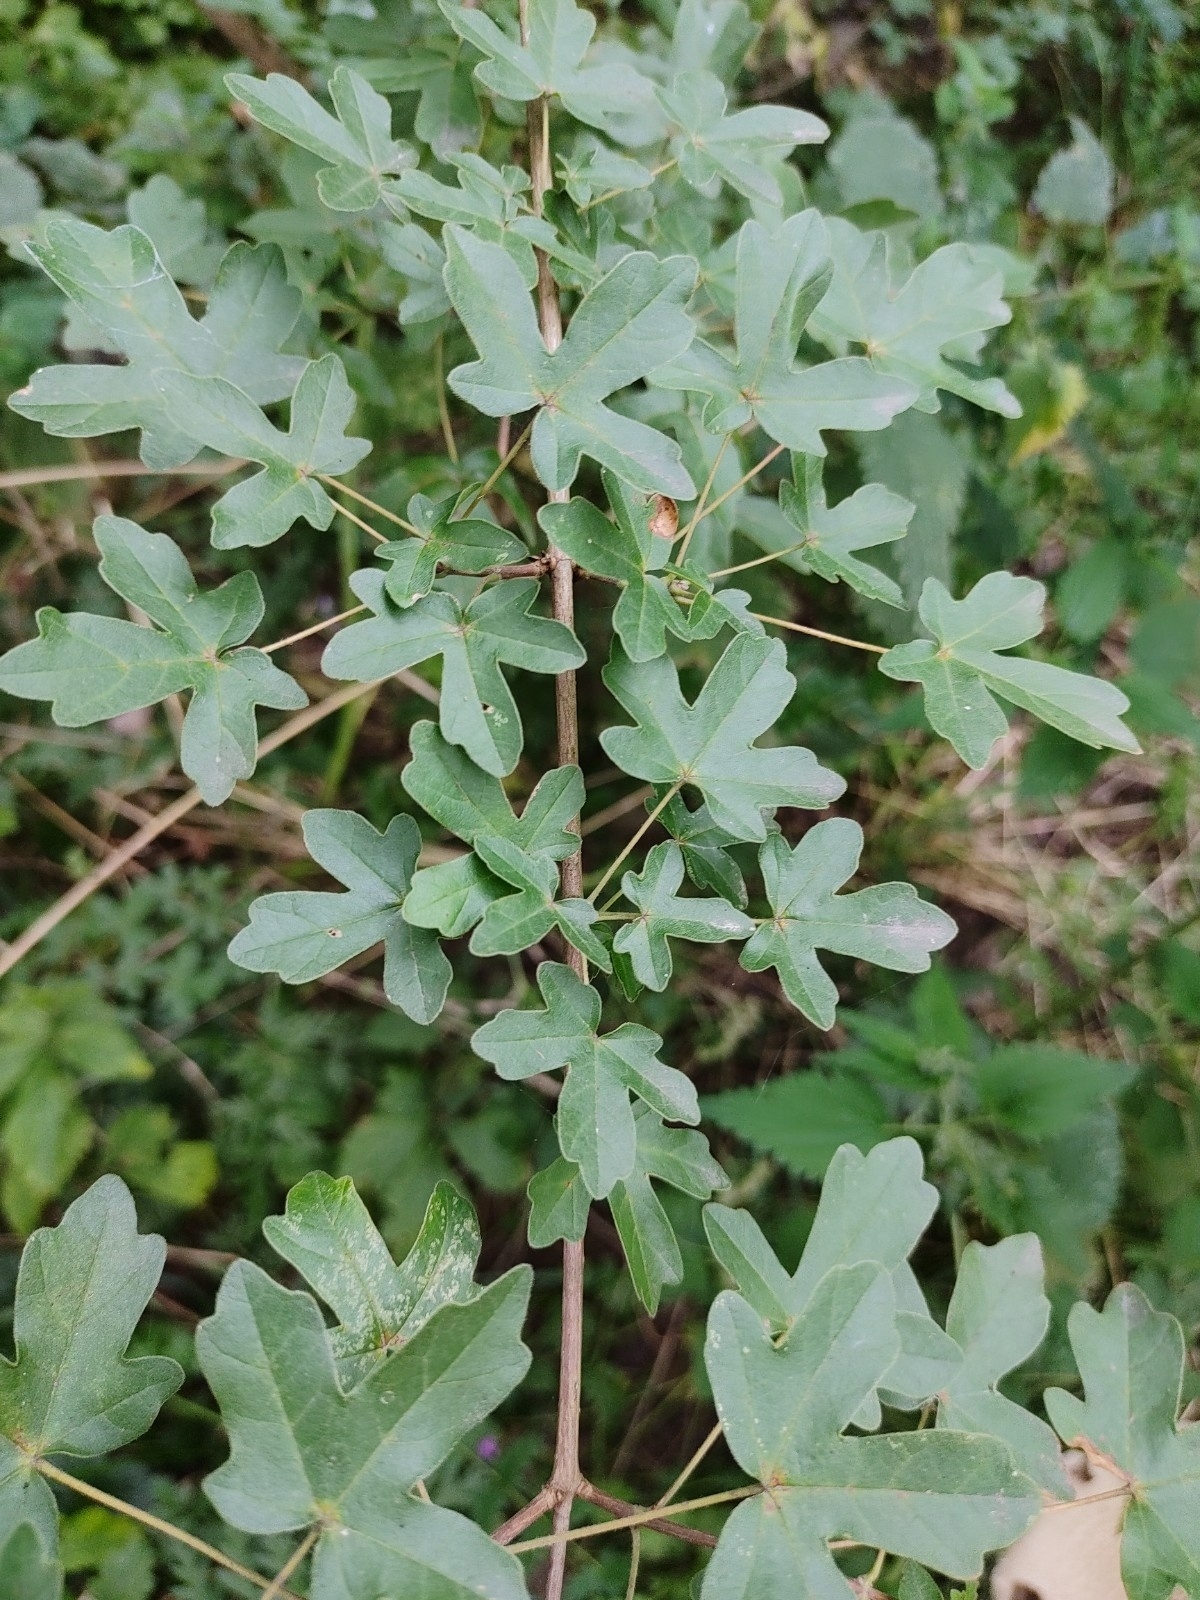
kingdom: Plantae
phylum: Tracheophyta
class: Magnoliopsida
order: Sapindales
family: Sapindaceae
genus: Acer
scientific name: Acer campestre
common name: Field maple
